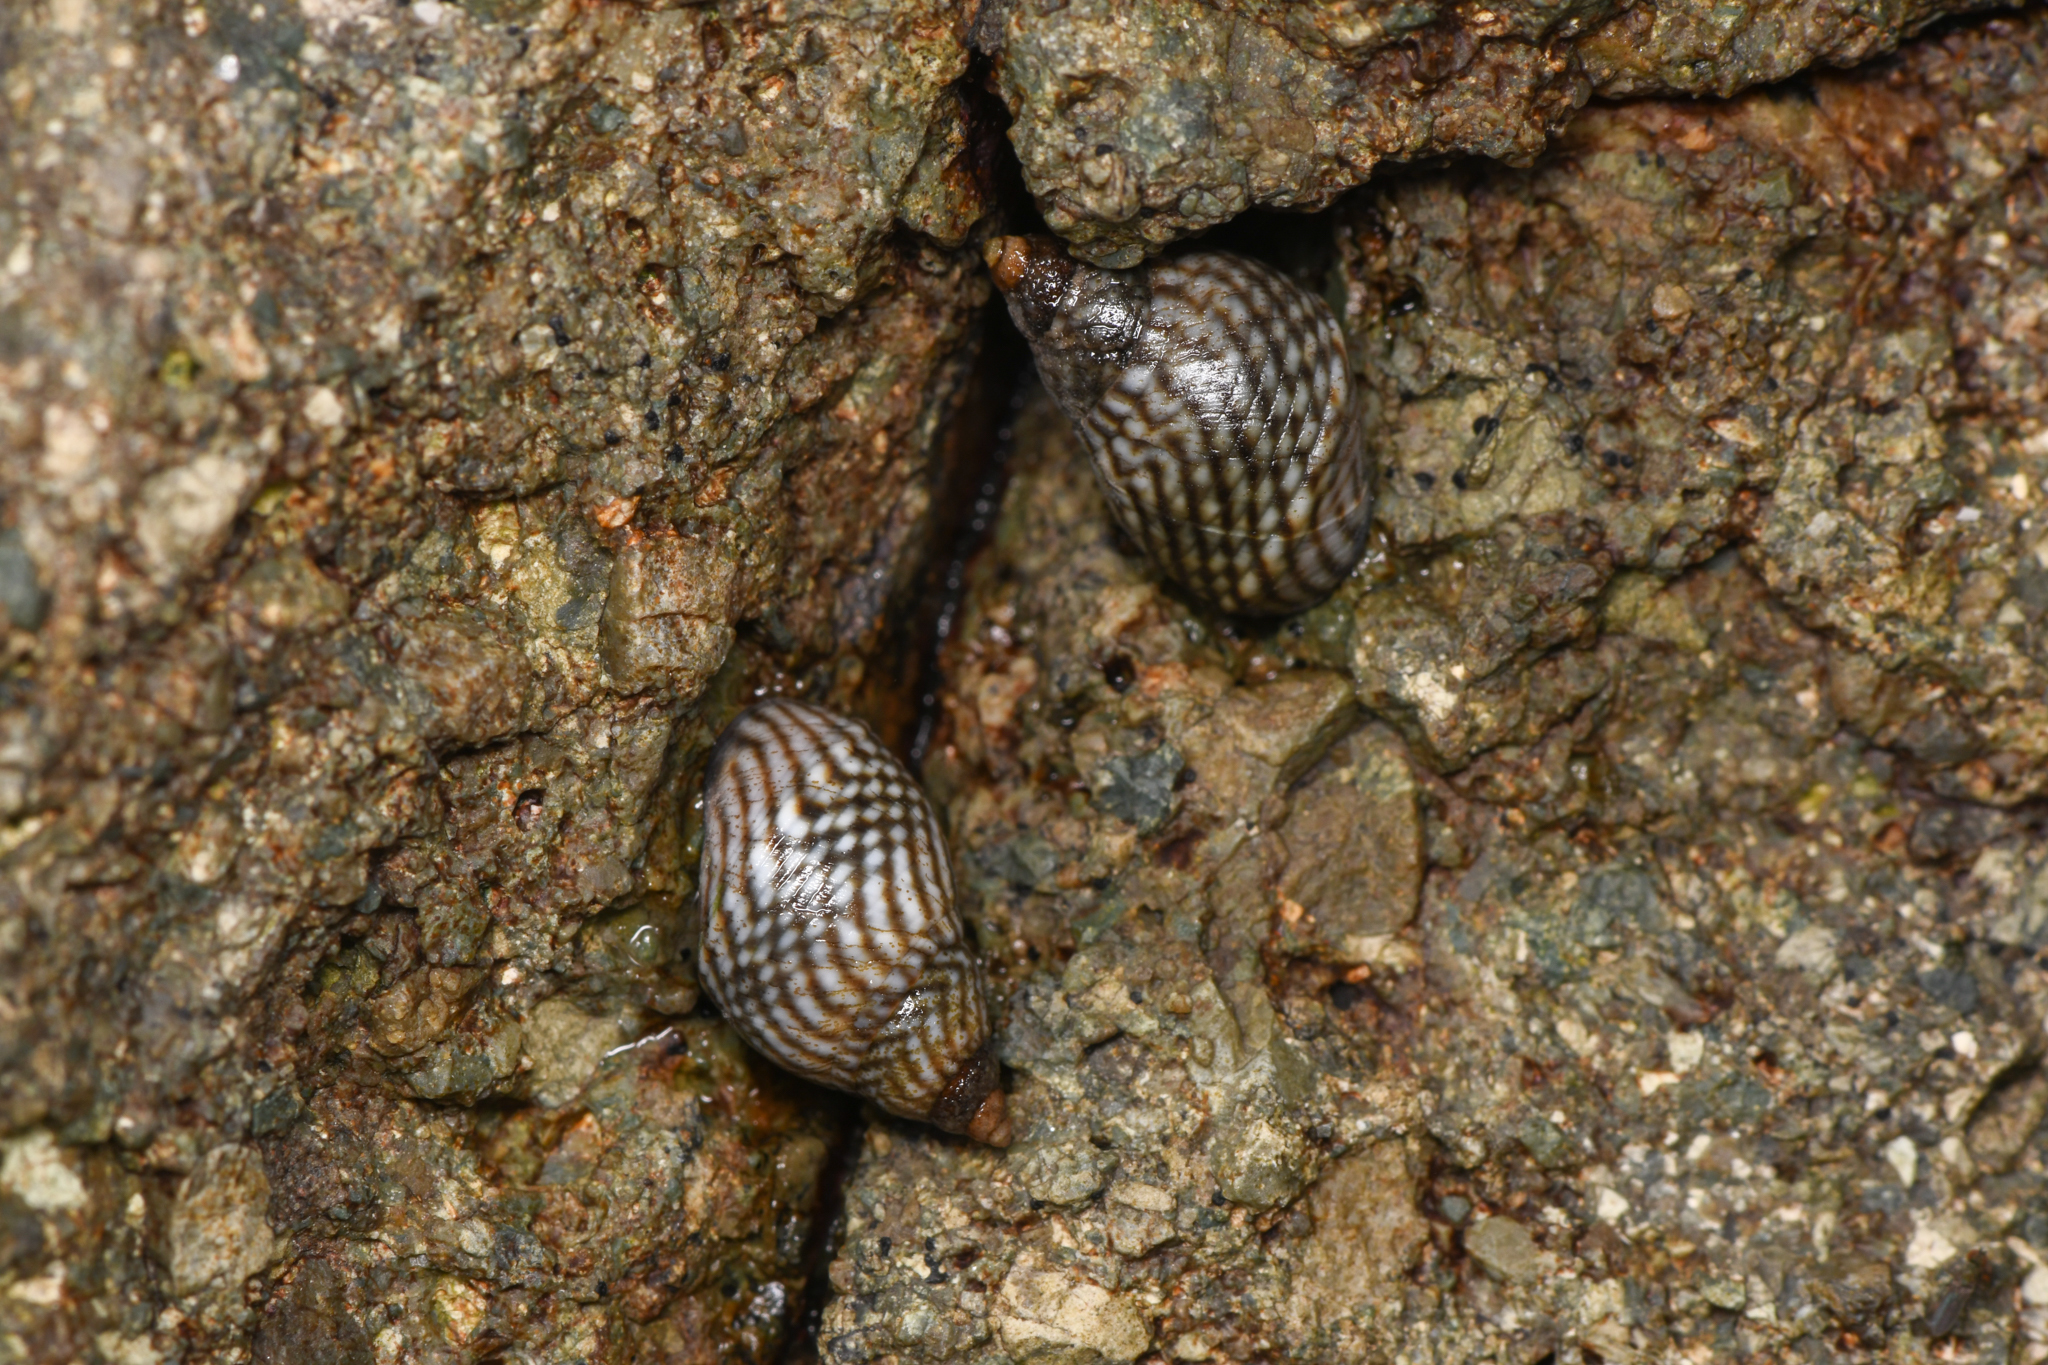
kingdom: Animalia
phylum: Mollusca
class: Gastropoda
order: Littorinimorpha
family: Littorinidae
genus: Echinolittorina
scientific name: Echinolittorina aspera
